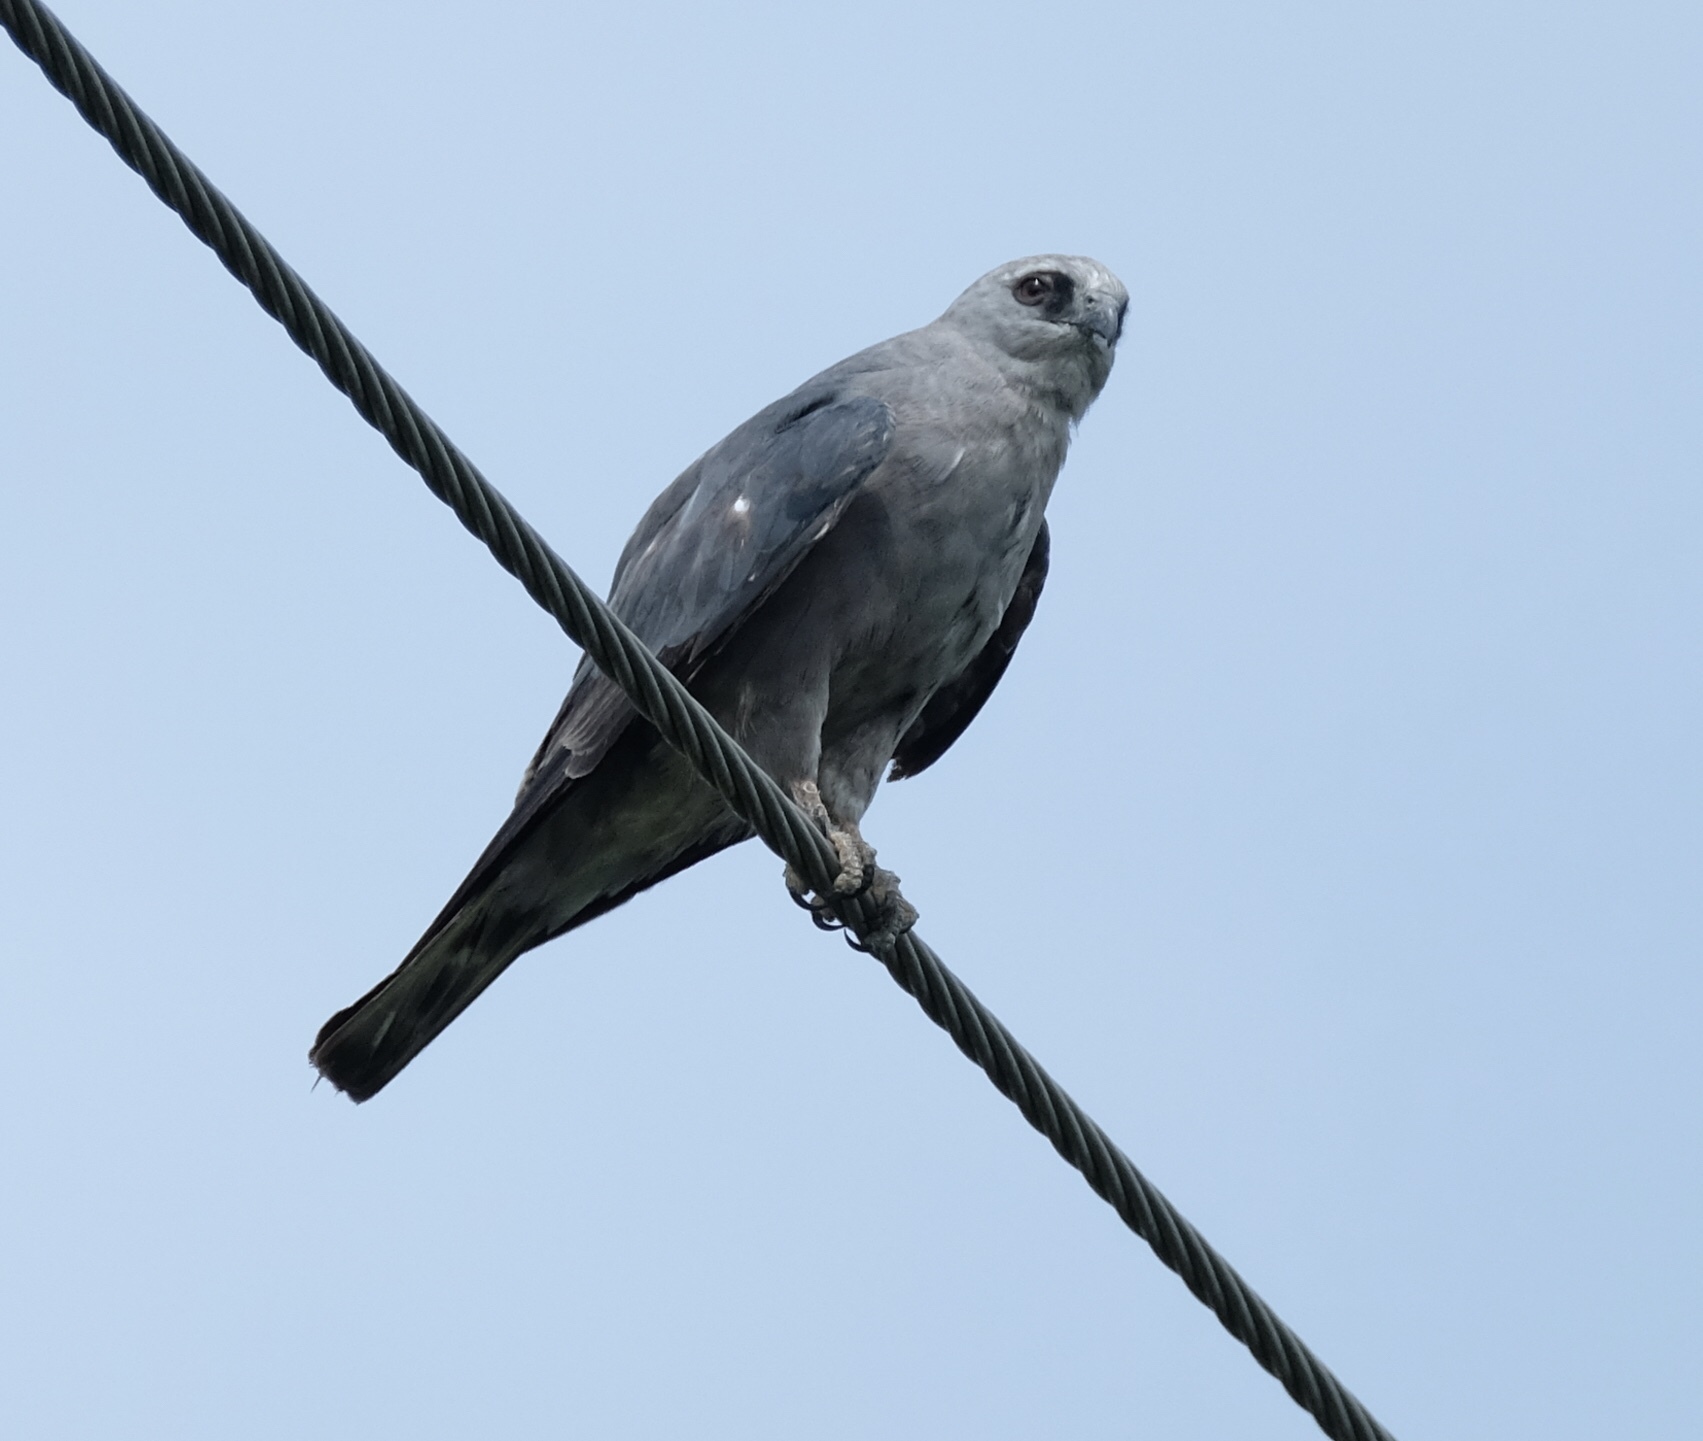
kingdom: Animalia
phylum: Chordata
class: Aves
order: Accipitriformes
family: Accipitridae
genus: Ictinia
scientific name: Ictinia mississippiensis
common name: Mississippi kite
